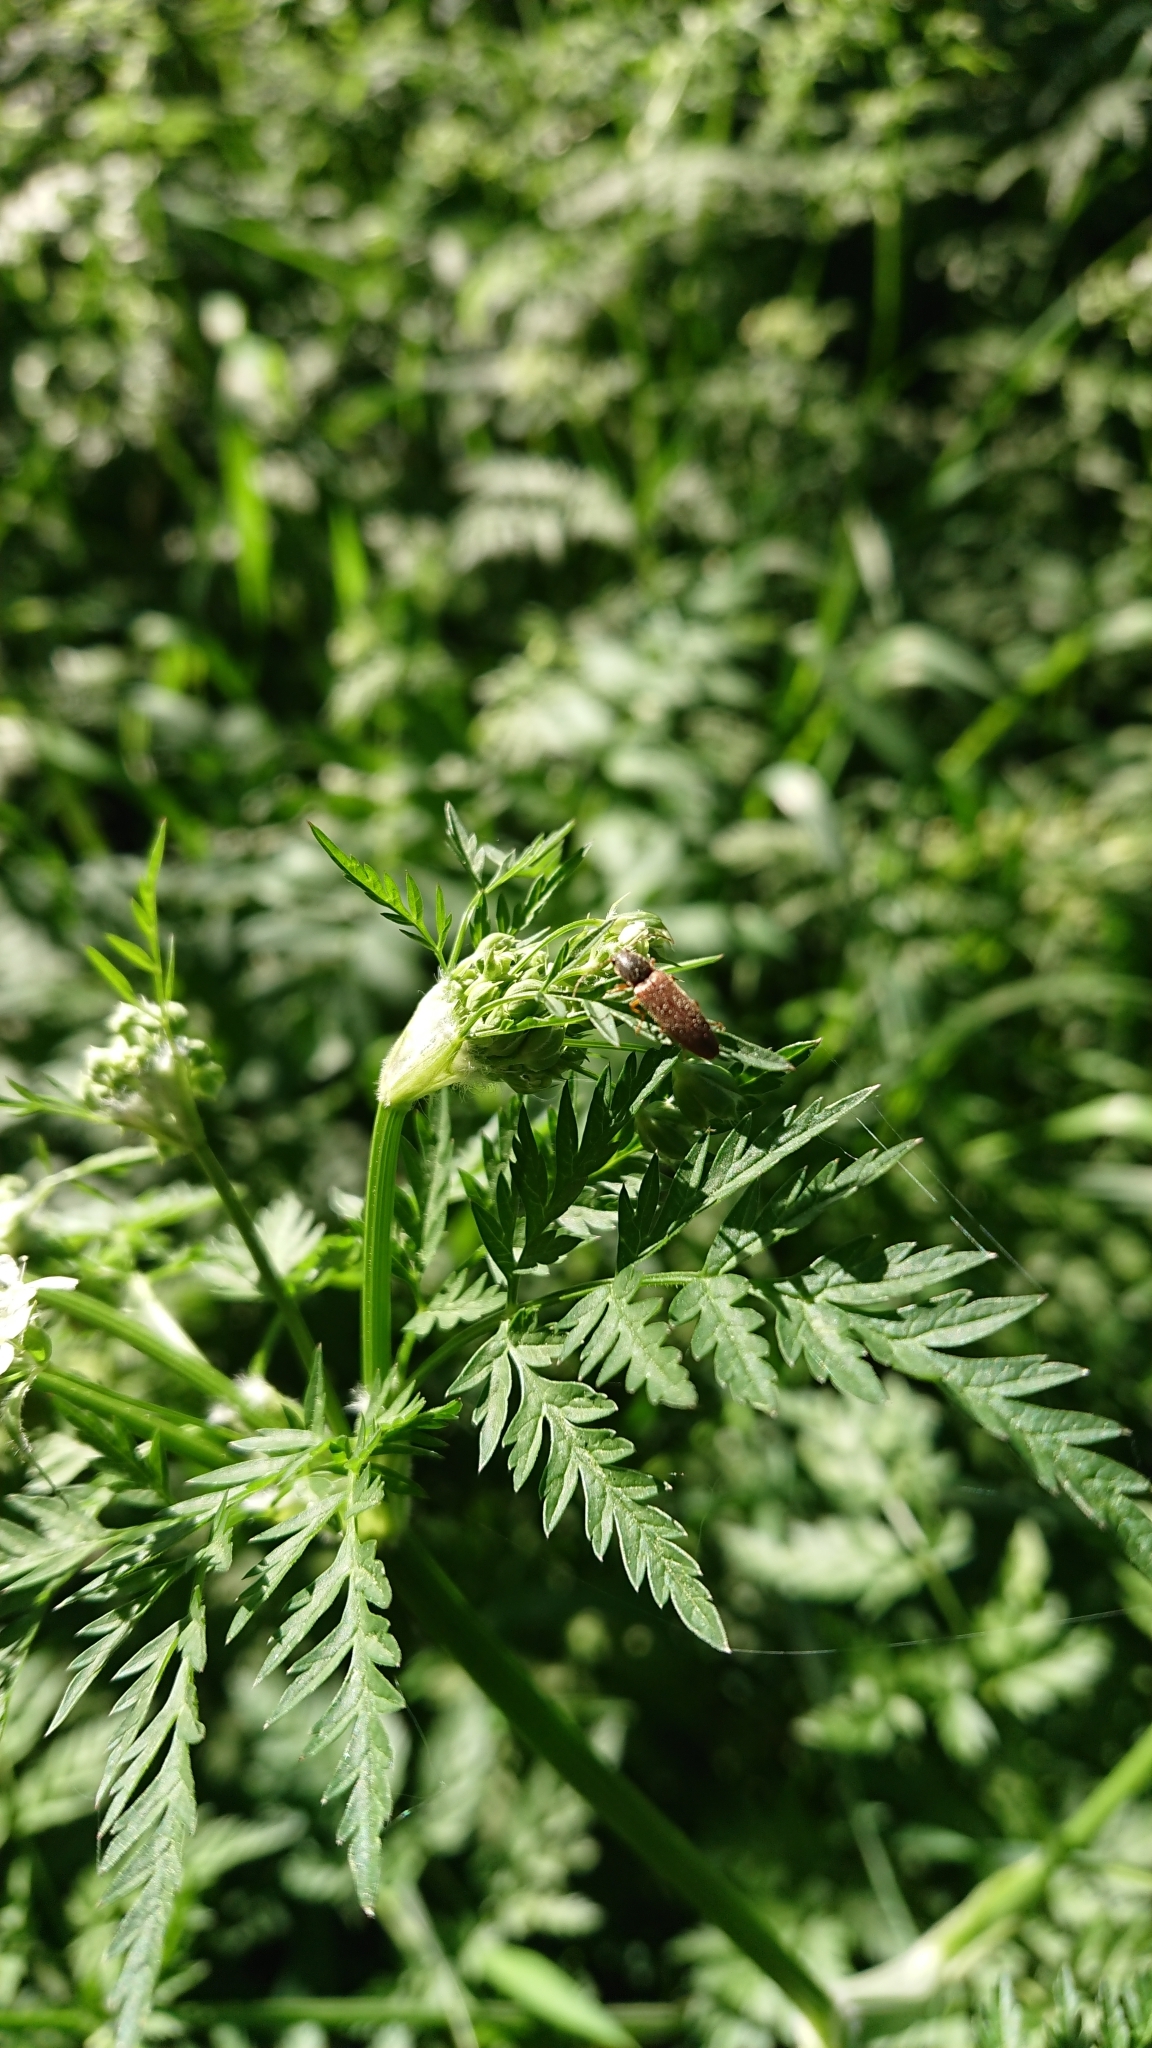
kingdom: Animalia
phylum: Arthropoda
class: Insecta
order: Coleoptera
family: Elateridae
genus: Athous
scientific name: Athous subfuscus
